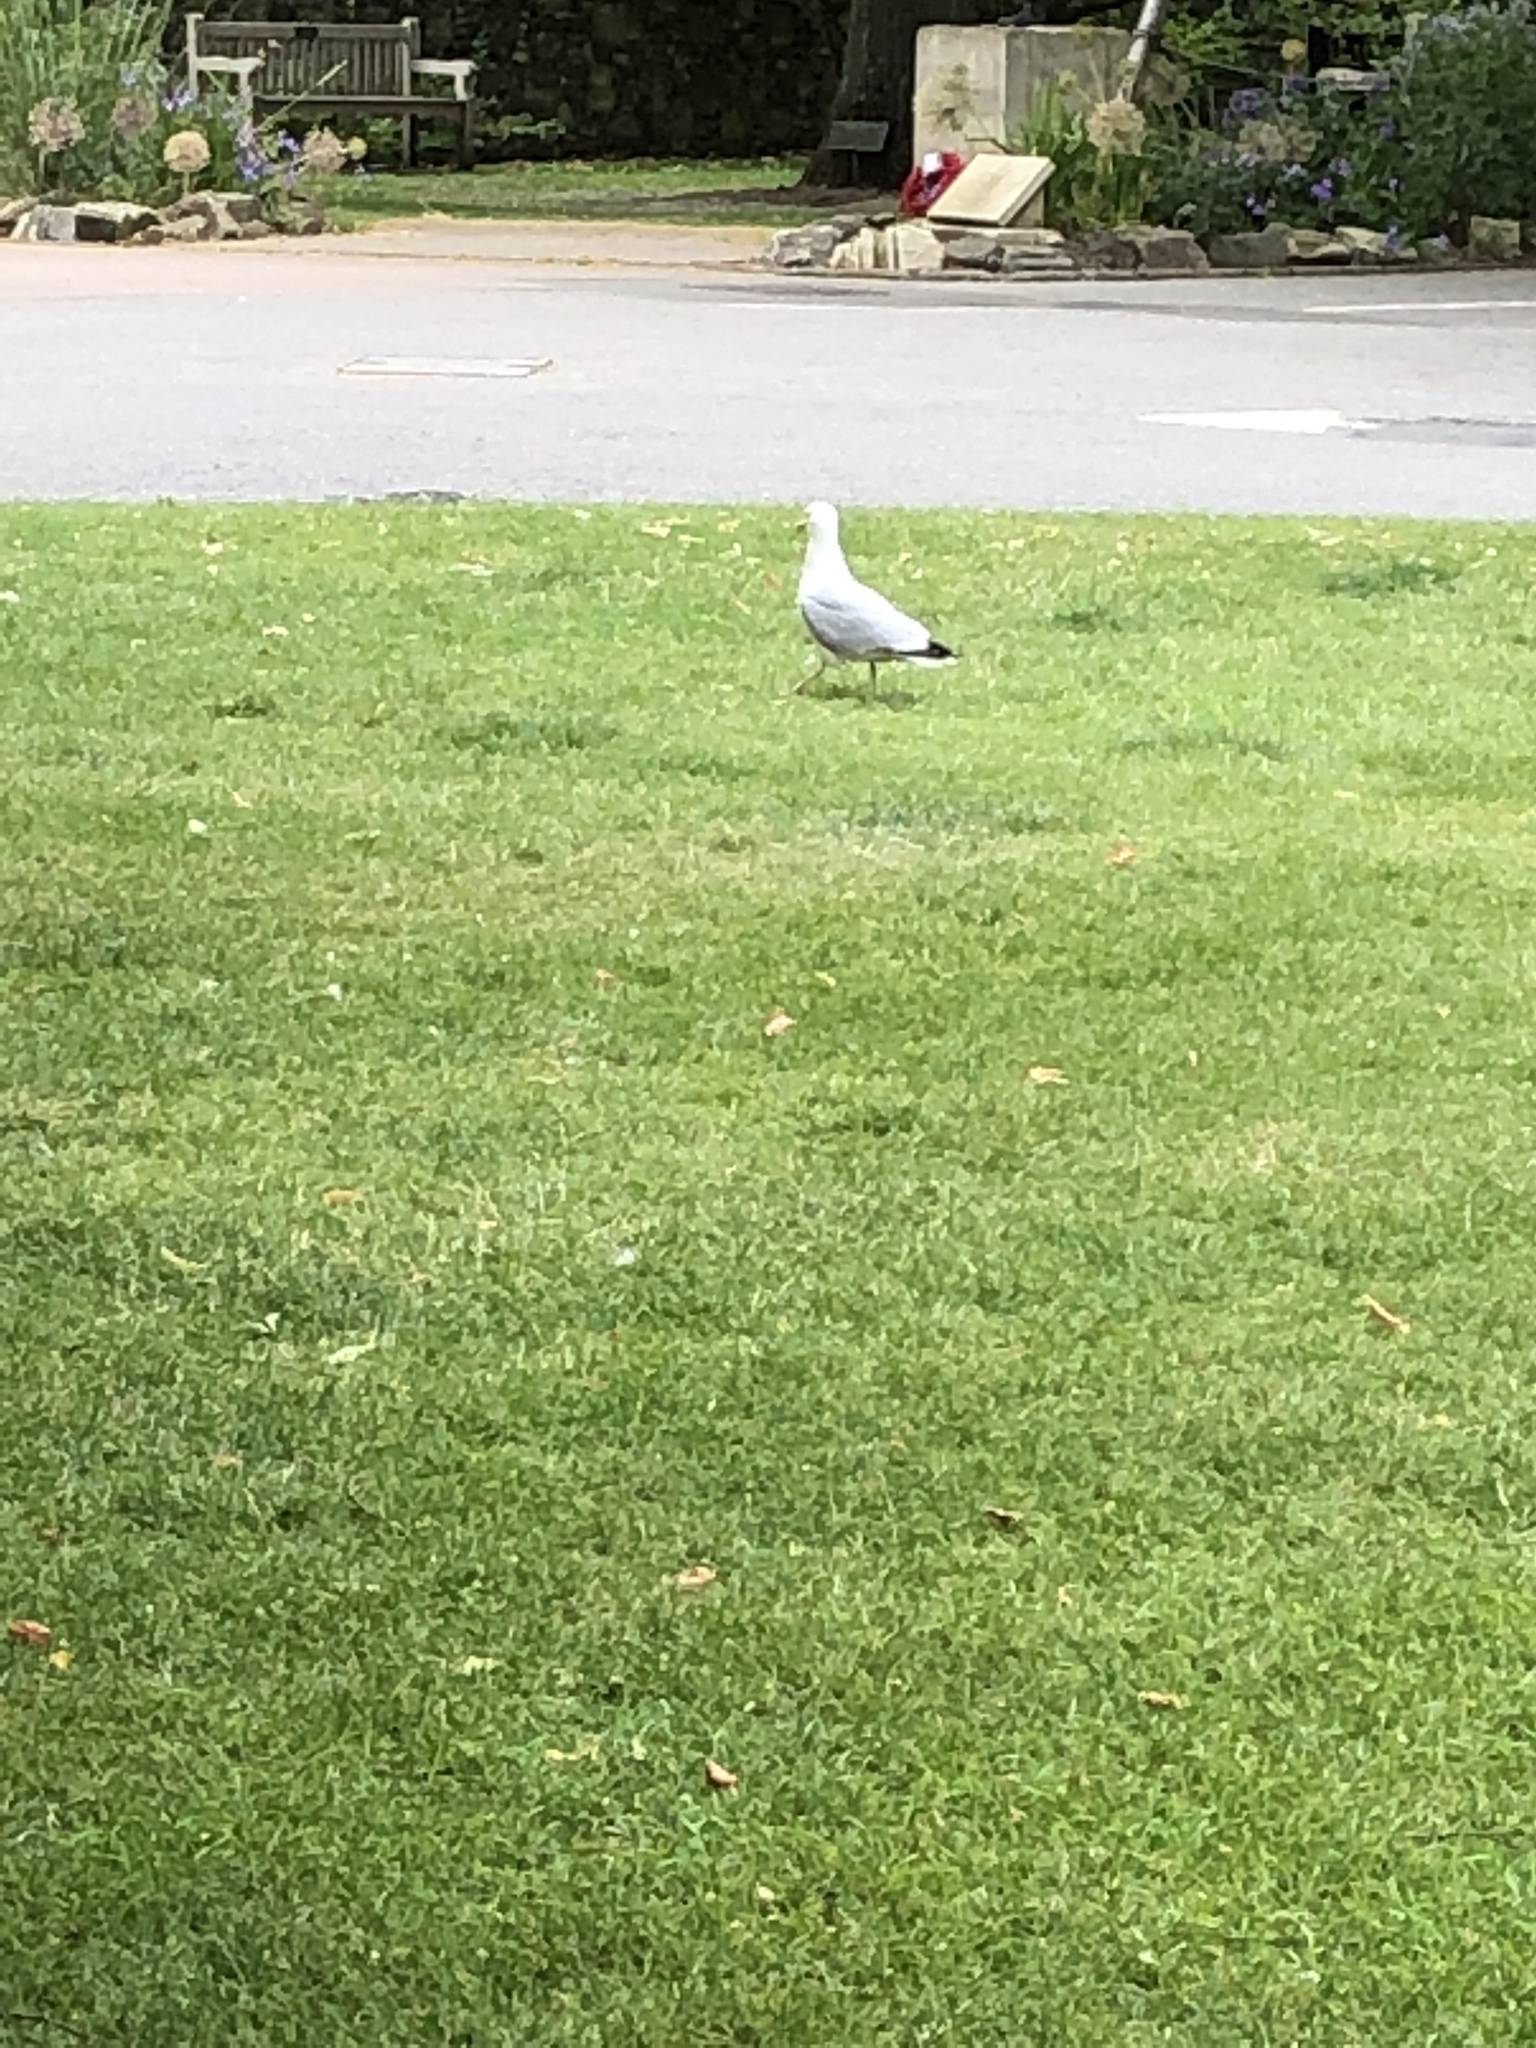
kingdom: Animalia
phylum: Chordata
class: Aves
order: Charadriiformes
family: Laridae
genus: Larus
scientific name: Larus argentatus
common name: Herring gull
